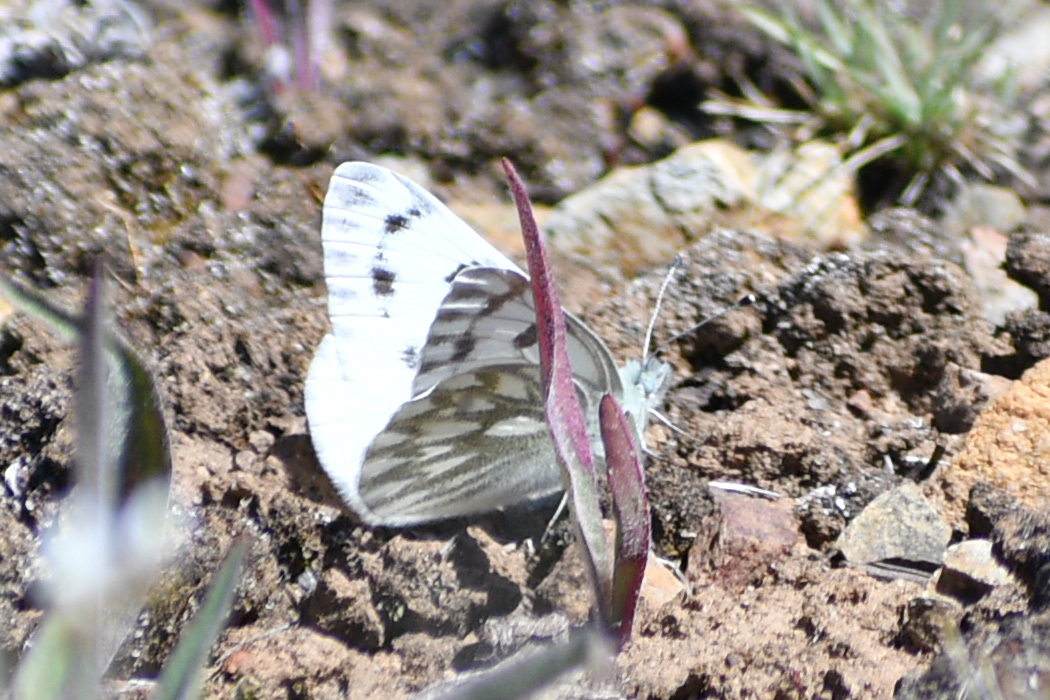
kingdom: Animalia
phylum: Arthropoda
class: Insecta
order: Lepidoptera
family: Pieridae
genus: Pontia
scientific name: Pontia occidentalis
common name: Western white
